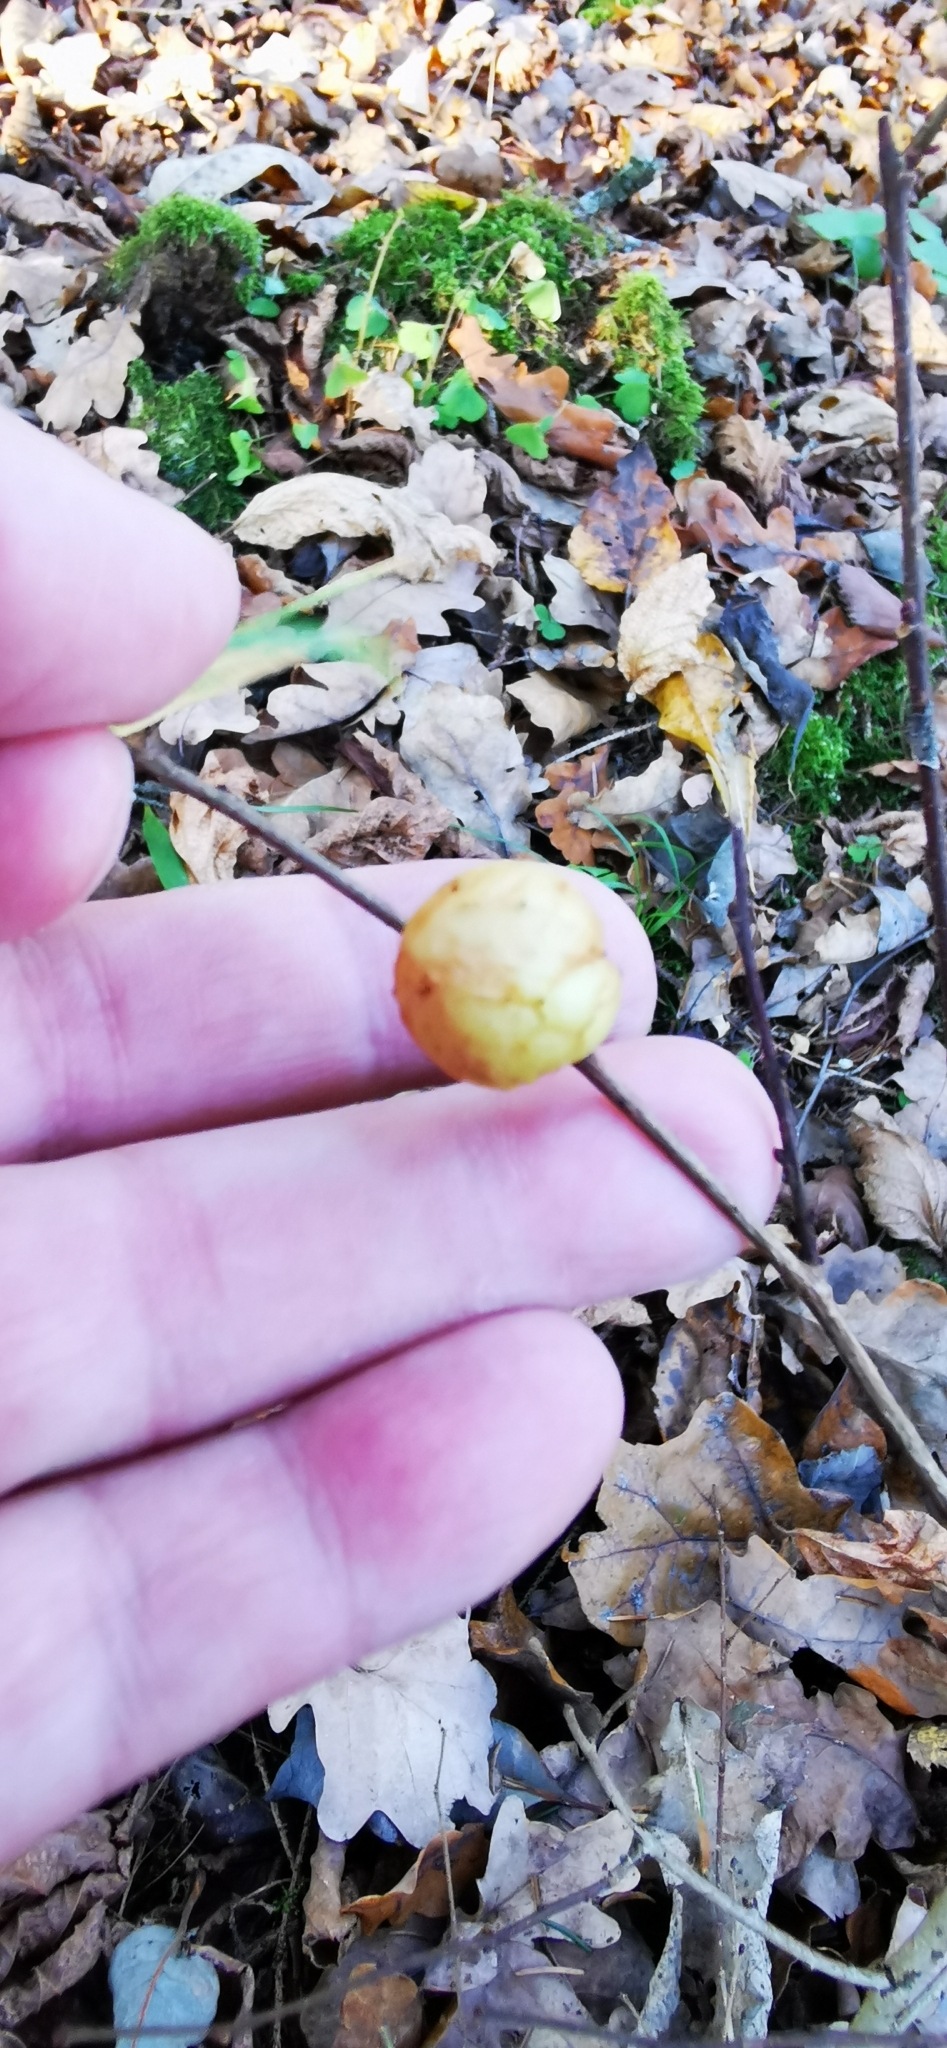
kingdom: Animalia
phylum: Arthropoda
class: Insecta
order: Hymenoptera
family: Cynipidae
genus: Cynips
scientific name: Cynips quercusfolii
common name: Cherry gall
